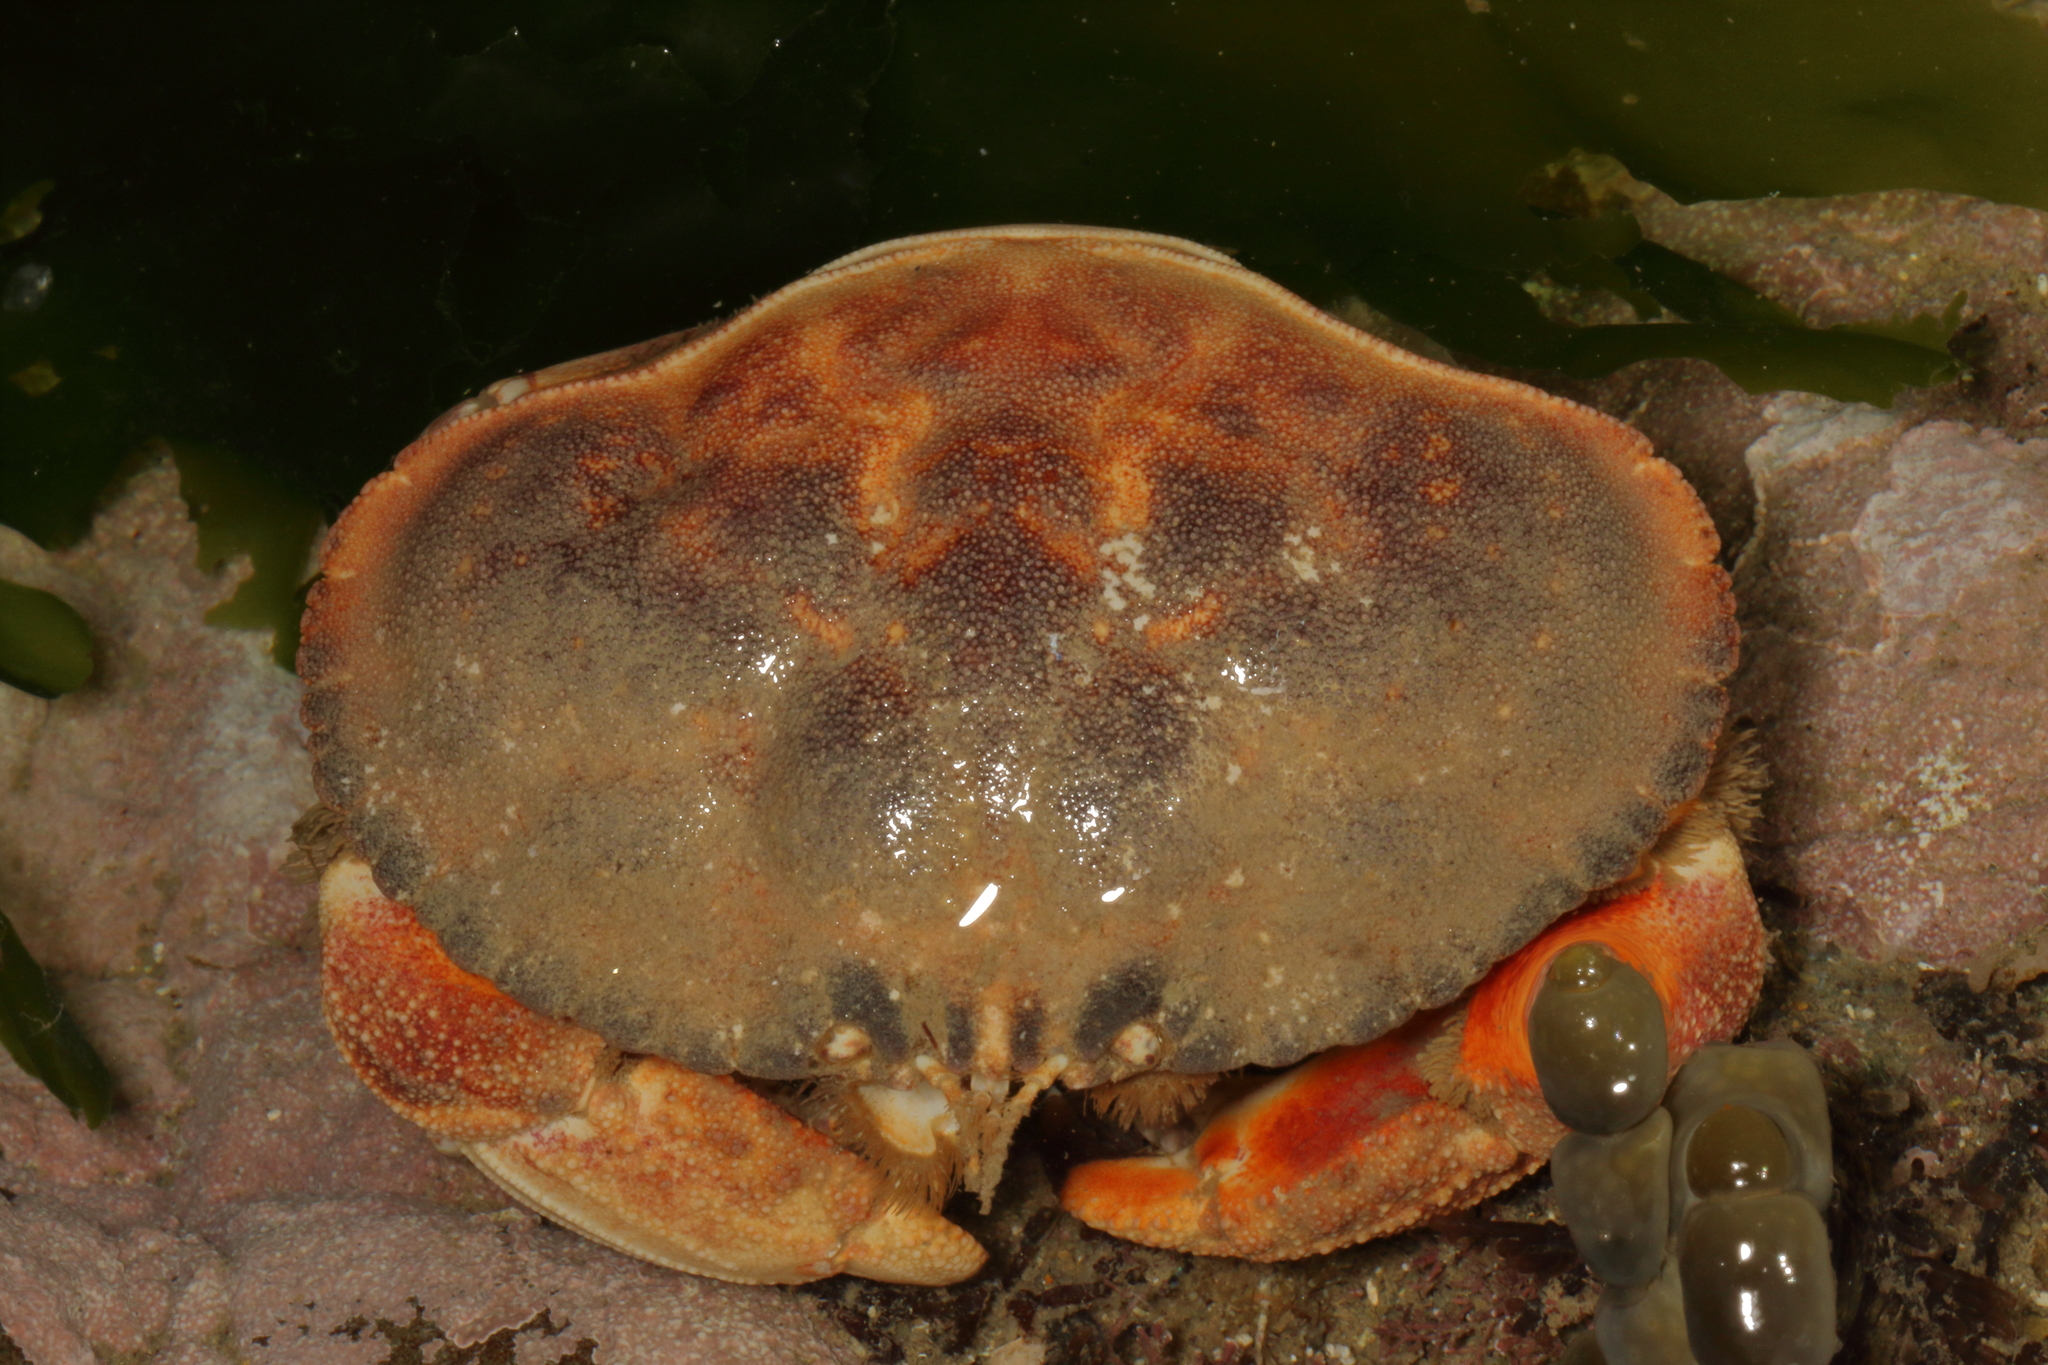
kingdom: Animalia
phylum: Arthropoda
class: Malacostraca
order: Decapoda
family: Cancridae
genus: Metacarcinus
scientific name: Metacarcinus novaezelandiae
